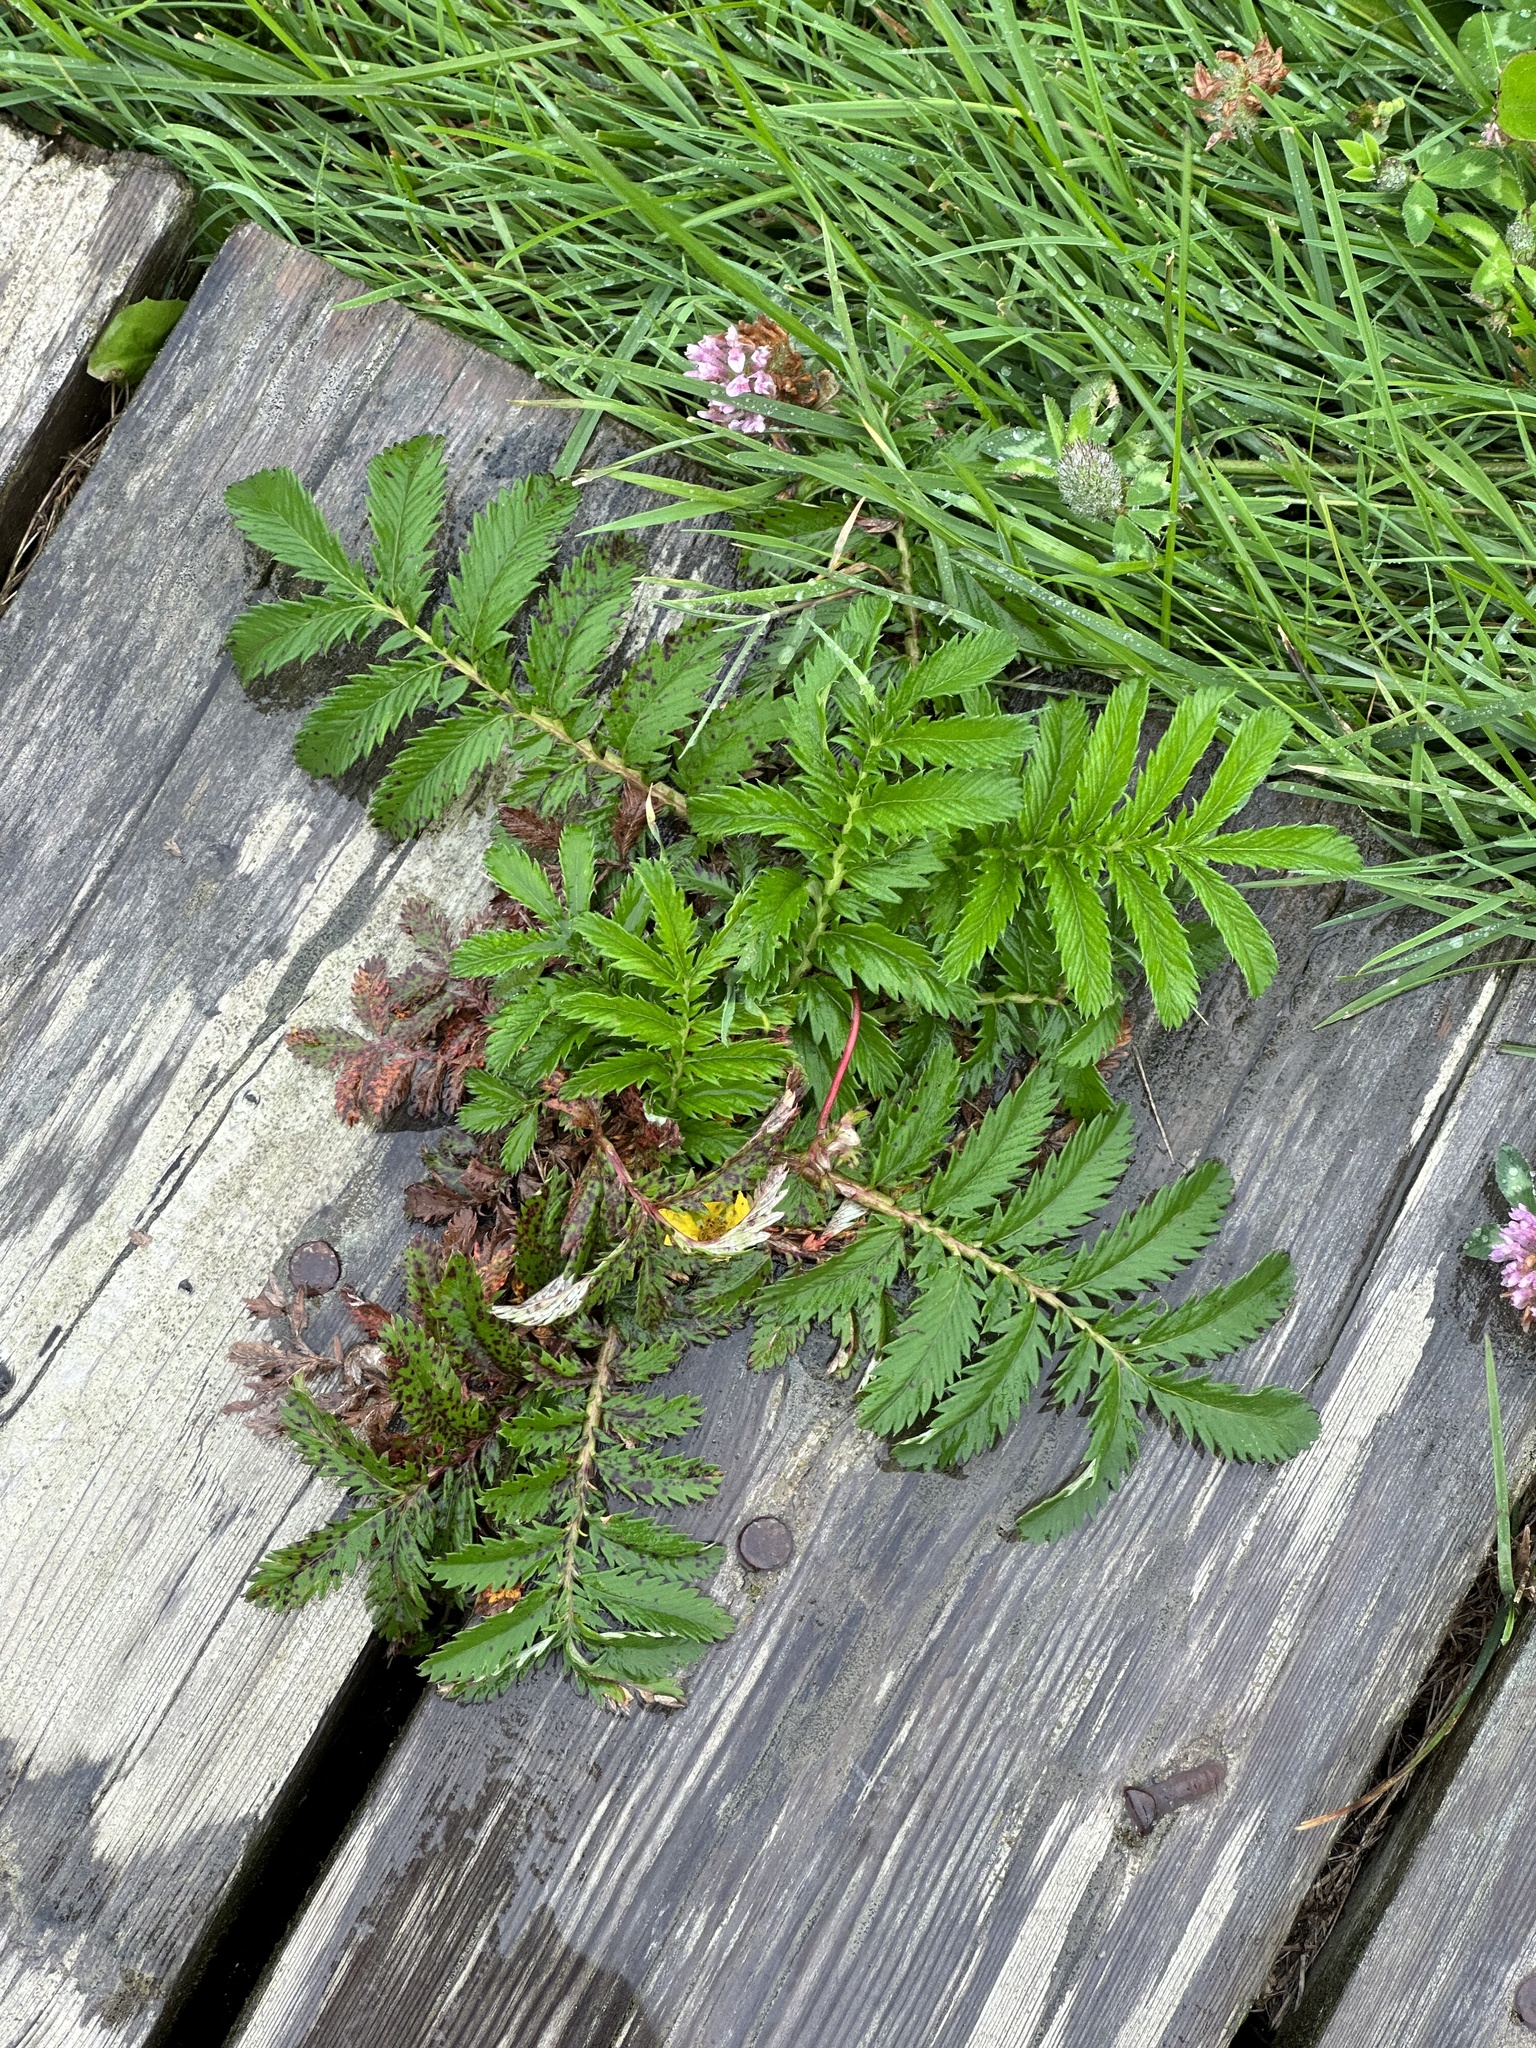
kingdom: Plantae
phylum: Tracheophyta
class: Magnoliopsida
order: Rosales
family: Rosaceae
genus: Argentina
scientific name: Argentina anserina
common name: Common silverweed
